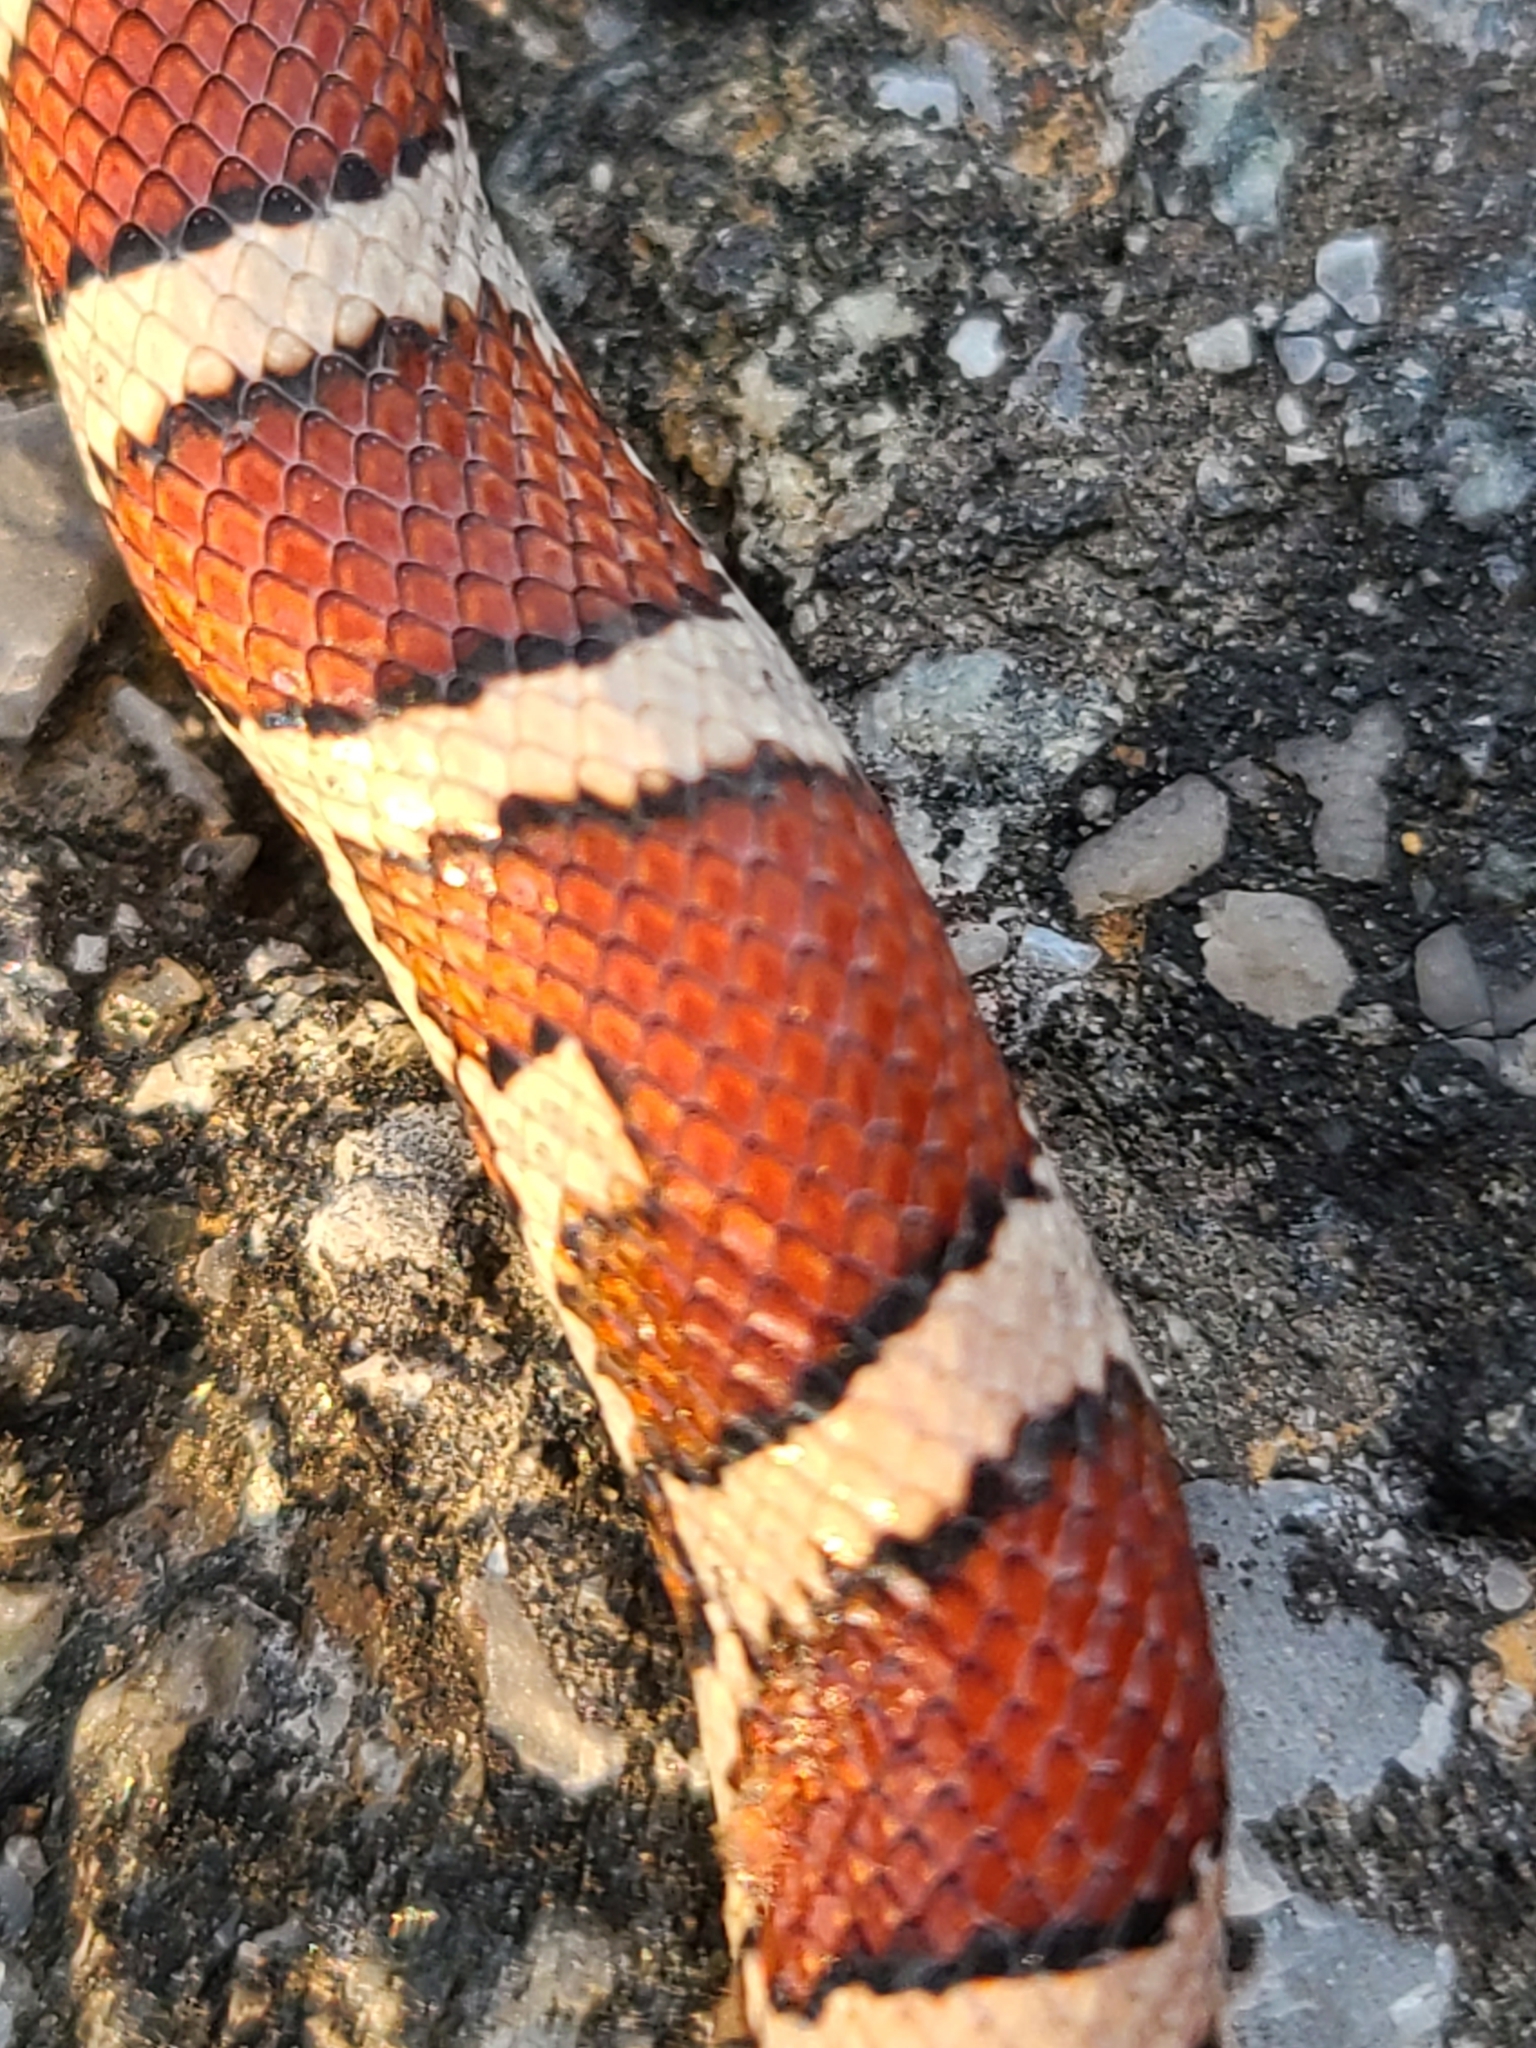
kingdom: Animalia
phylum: Chordata
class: Squamata
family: Colubridae
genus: Lampropeltis
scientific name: Lampropeltis triangulum
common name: Eastern milksnake
